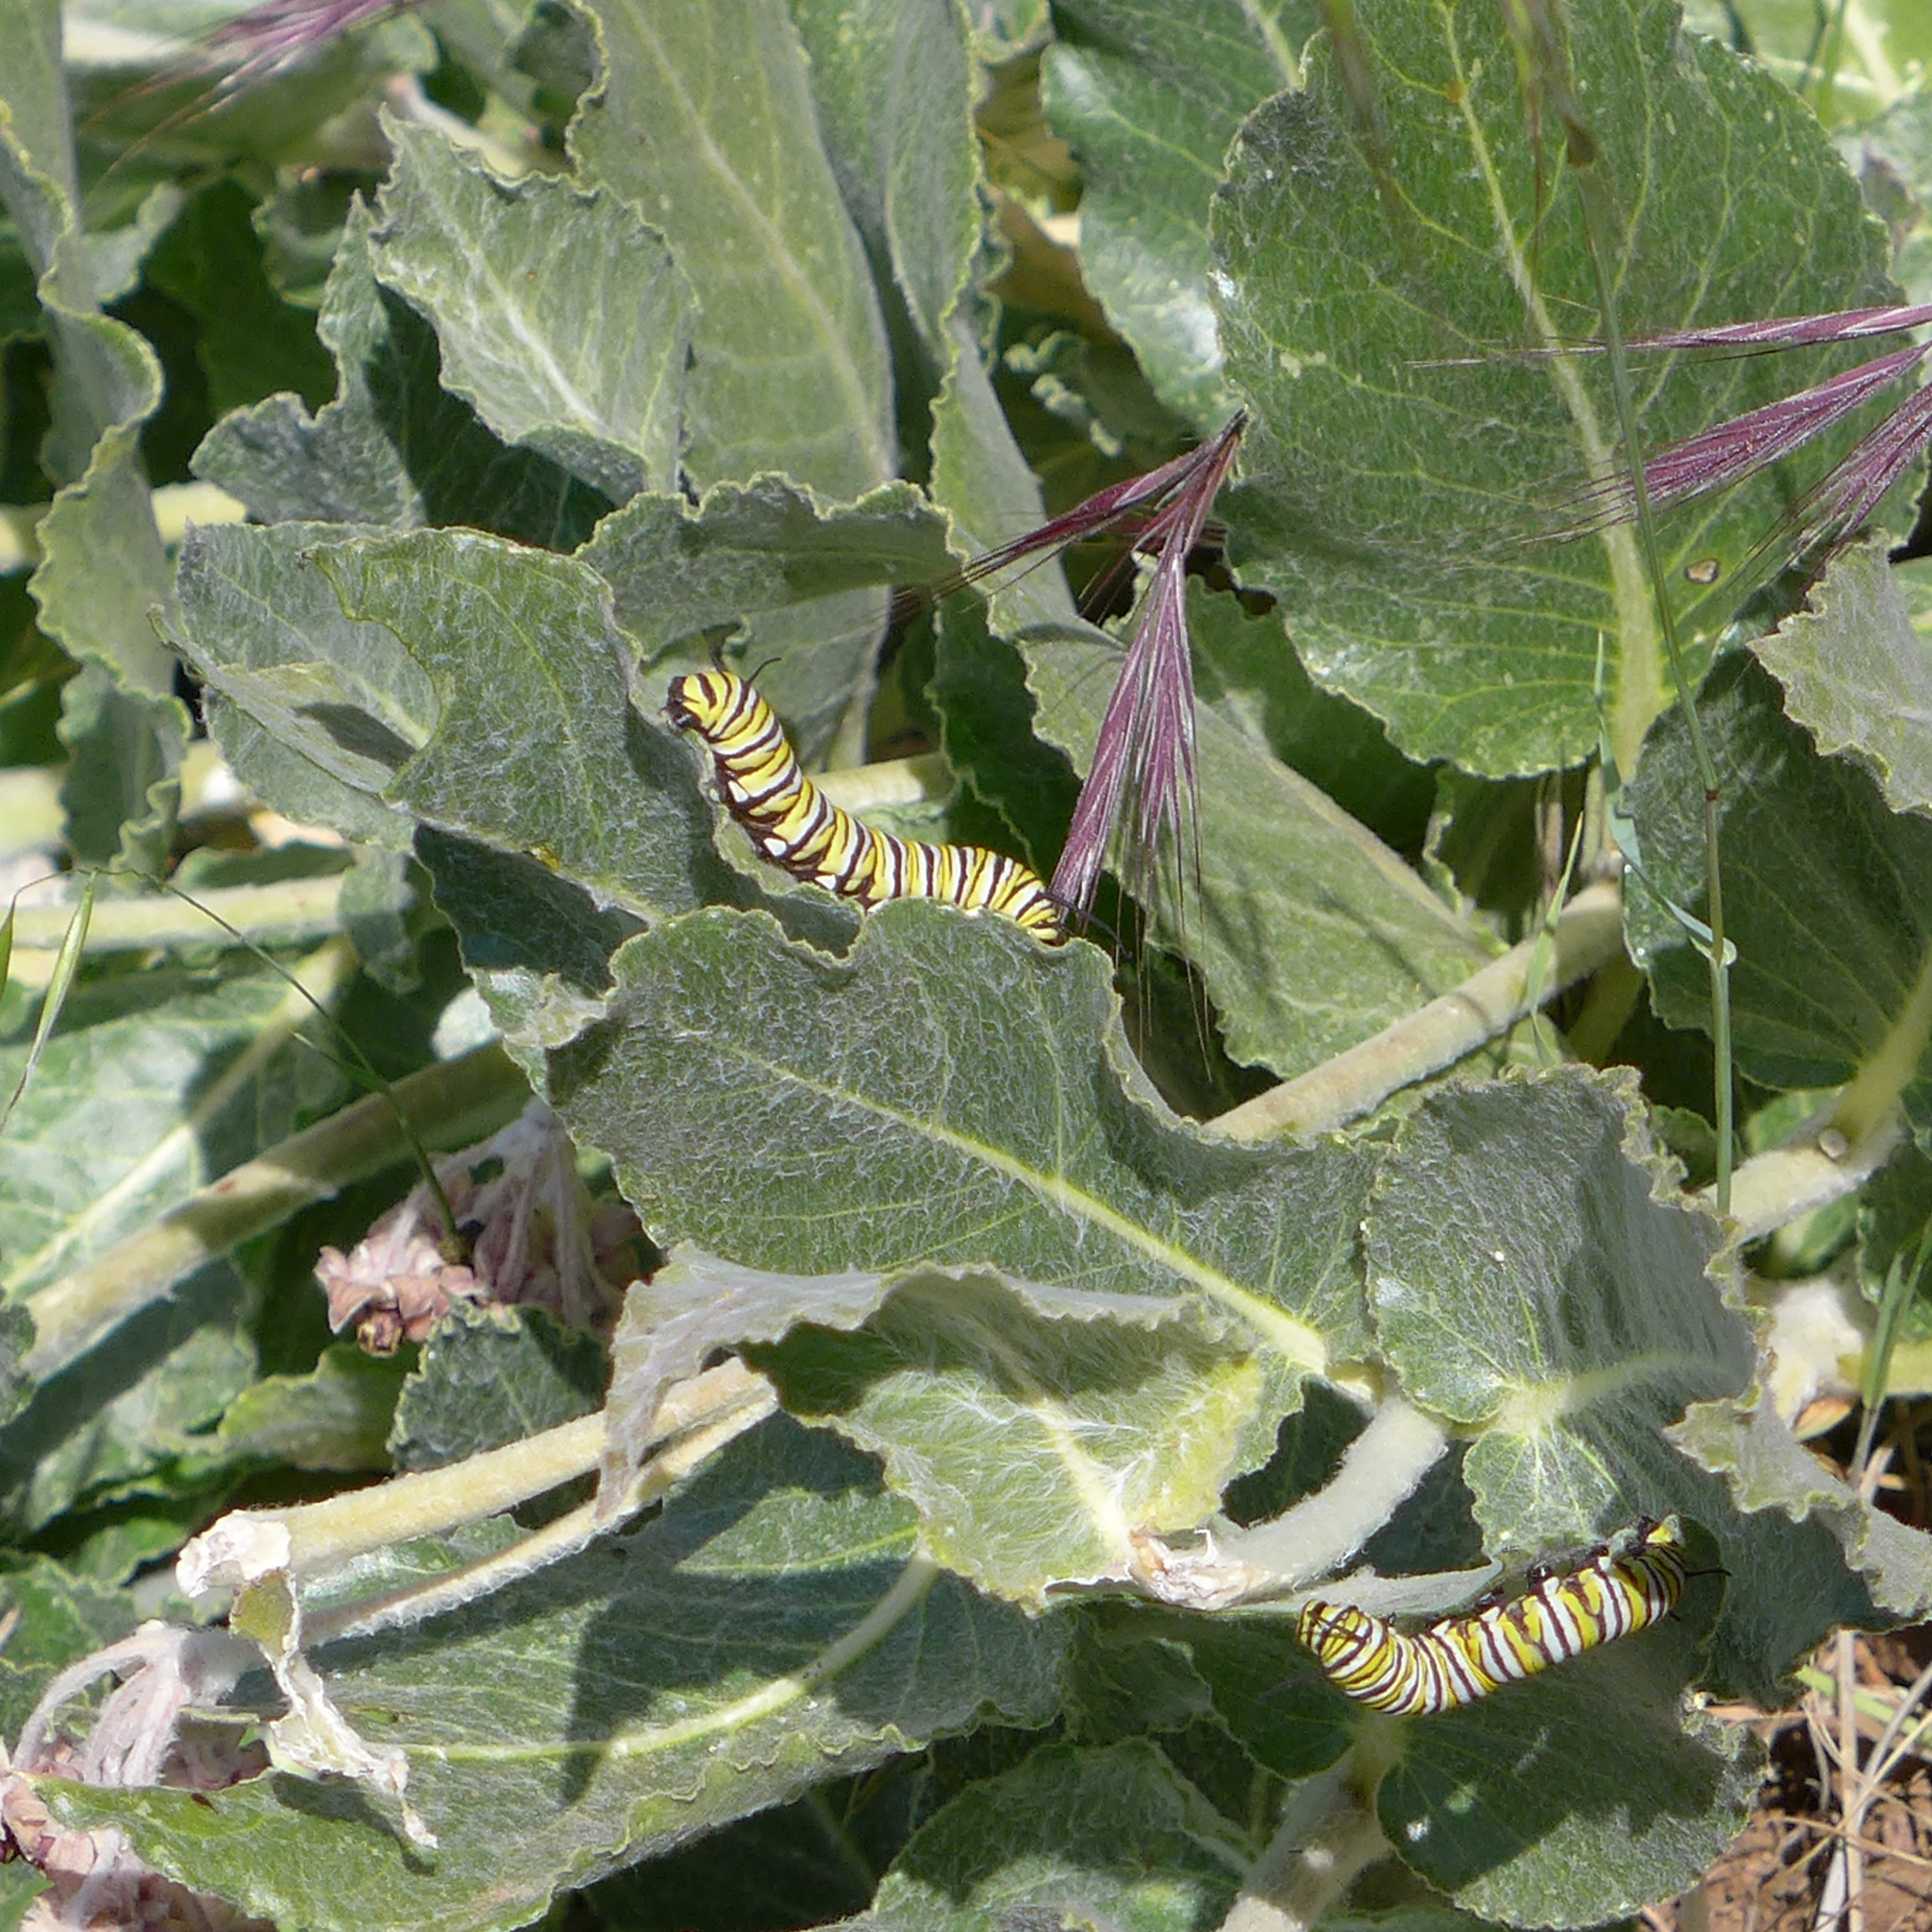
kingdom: Plantae
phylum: Tracheophyta
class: Magnoliopsida
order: Gentianales
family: Apocynaceae
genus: Asclepias
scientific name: Asclepias californica
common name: California milkweed
